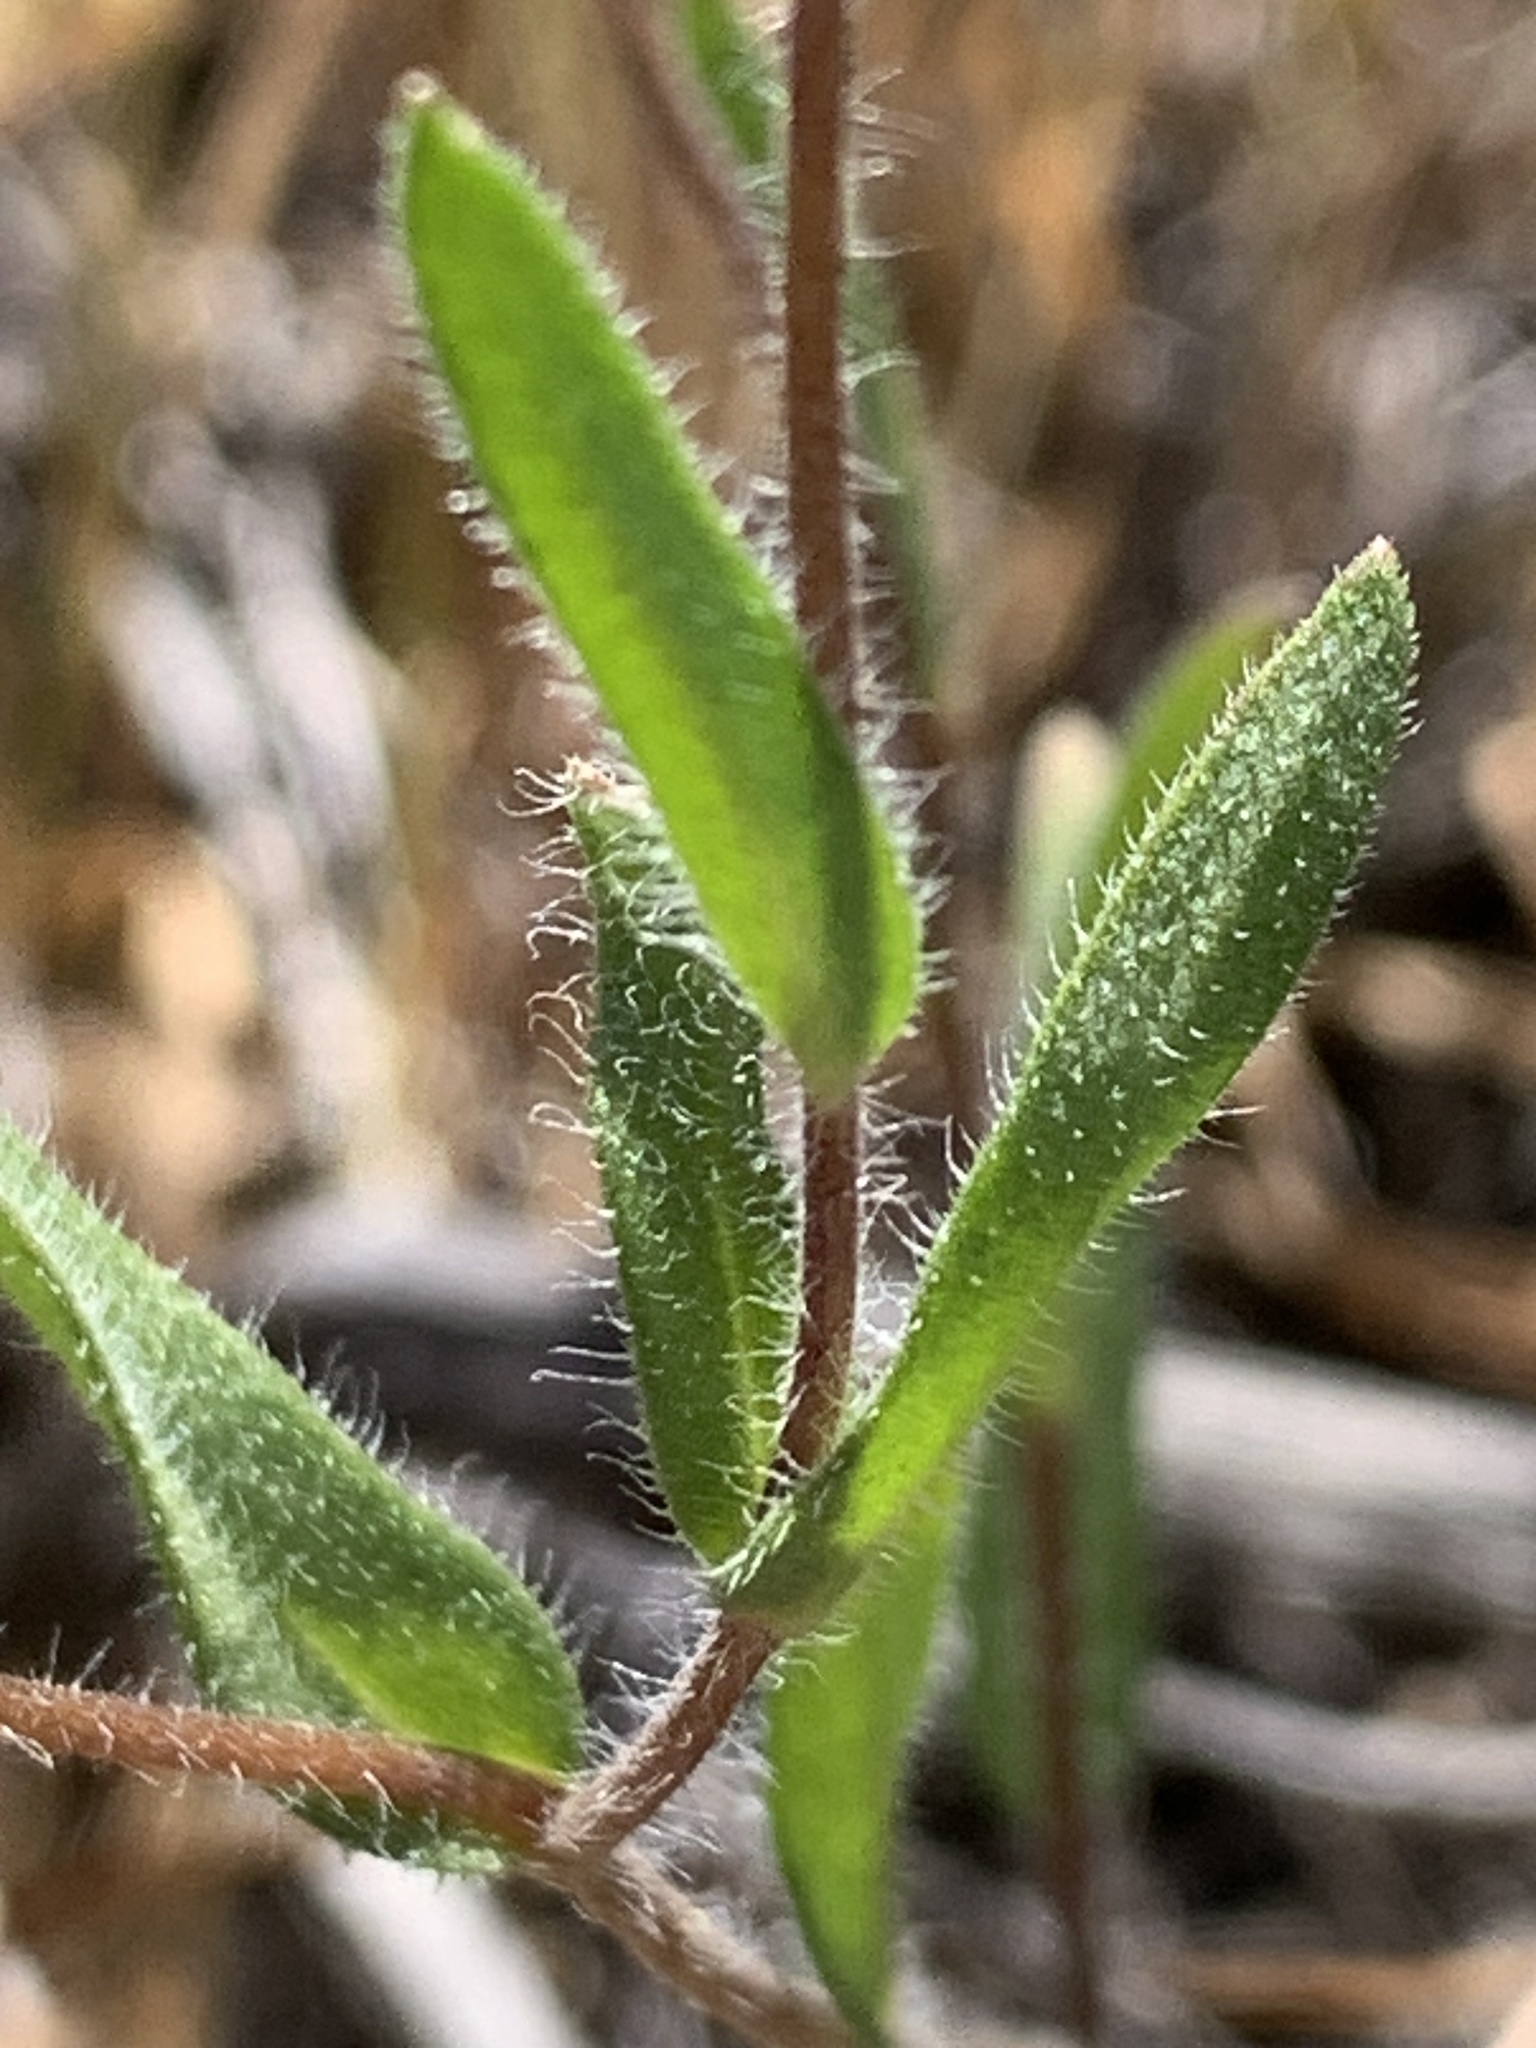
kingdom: Plantae
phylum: Tracheophyta
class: Magnoliopsida
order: Asterales
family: Asteraceae
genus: Layia
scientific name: Layia platyglossa
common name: Tidy-tips
